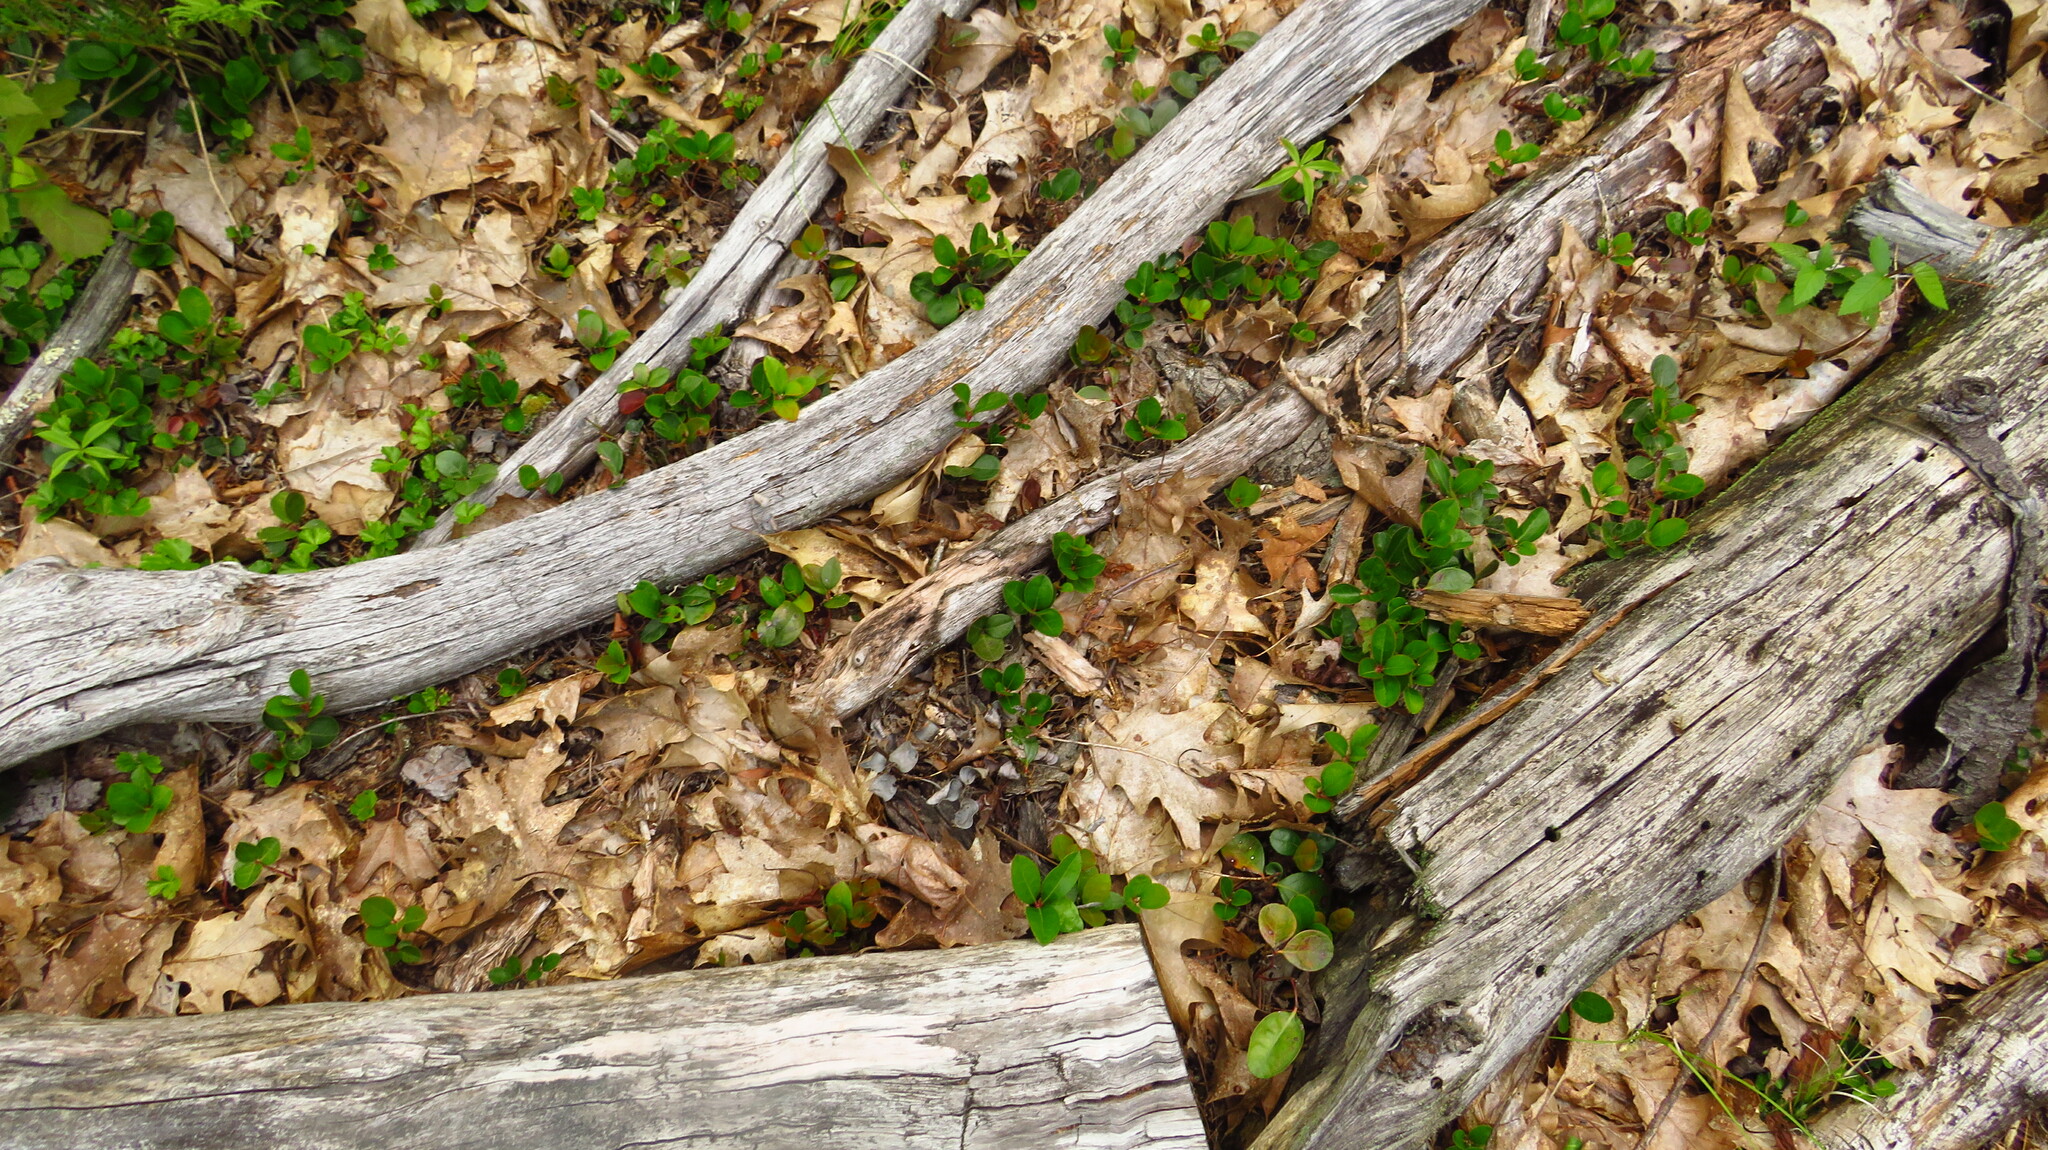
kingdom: Plantae
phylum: Tracheophyta
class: Magnoliopsida
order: Ericales
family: Ericaceae
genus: Gaultheria
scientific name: Gaultheria procumbens
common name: Checkerberry
